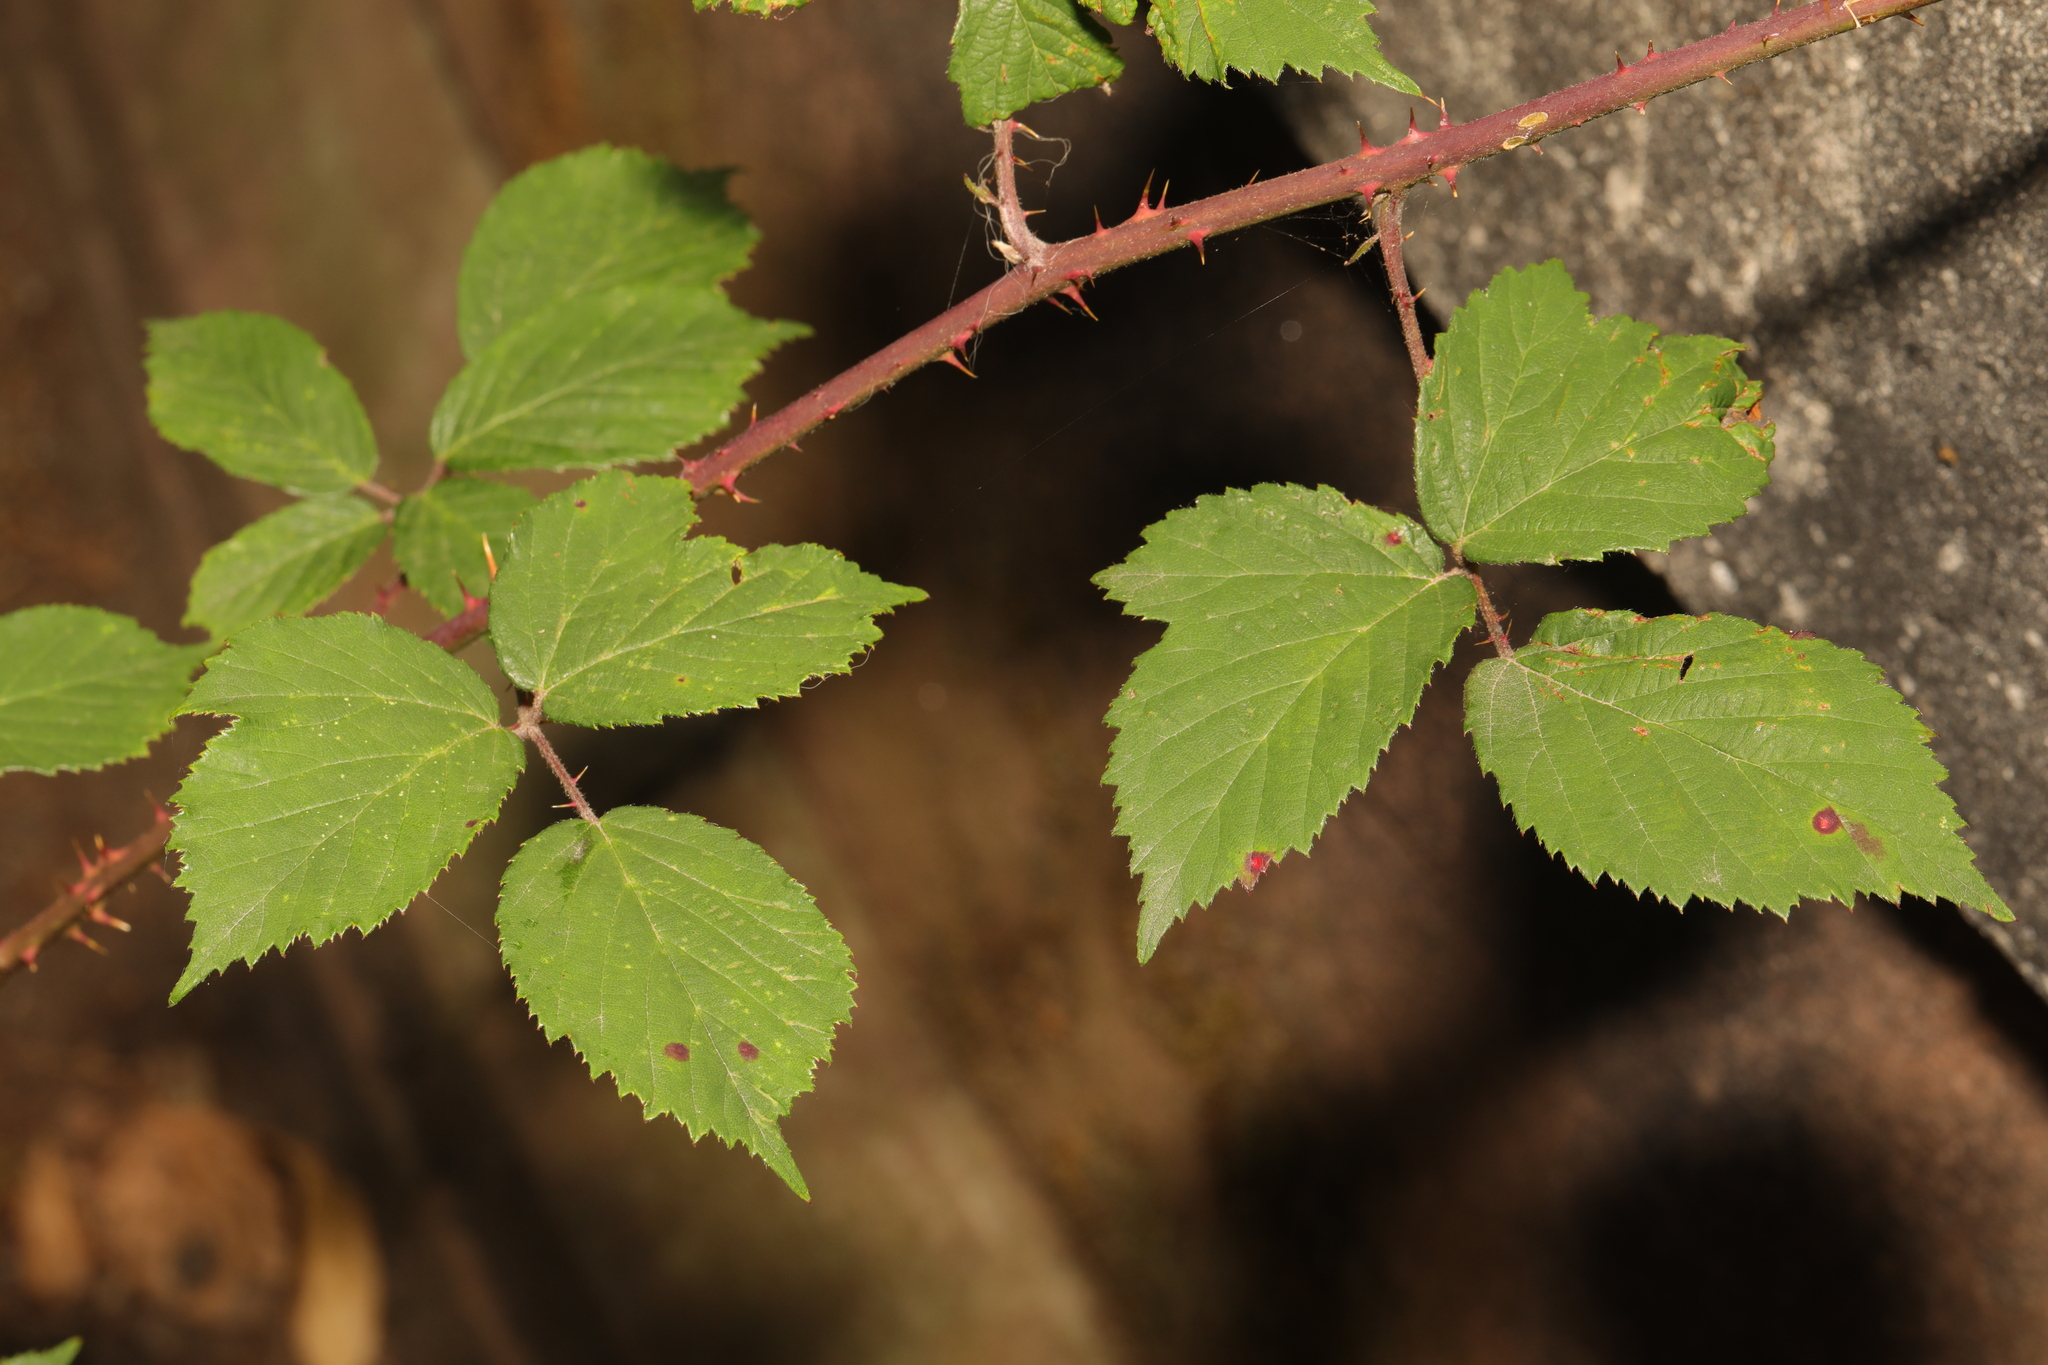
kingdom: Plantae
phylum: Tracheophyta
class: Magnoliopsida
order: Rosales
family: Rosaceae
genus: Rubus
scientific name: Rubus cissburiensis
